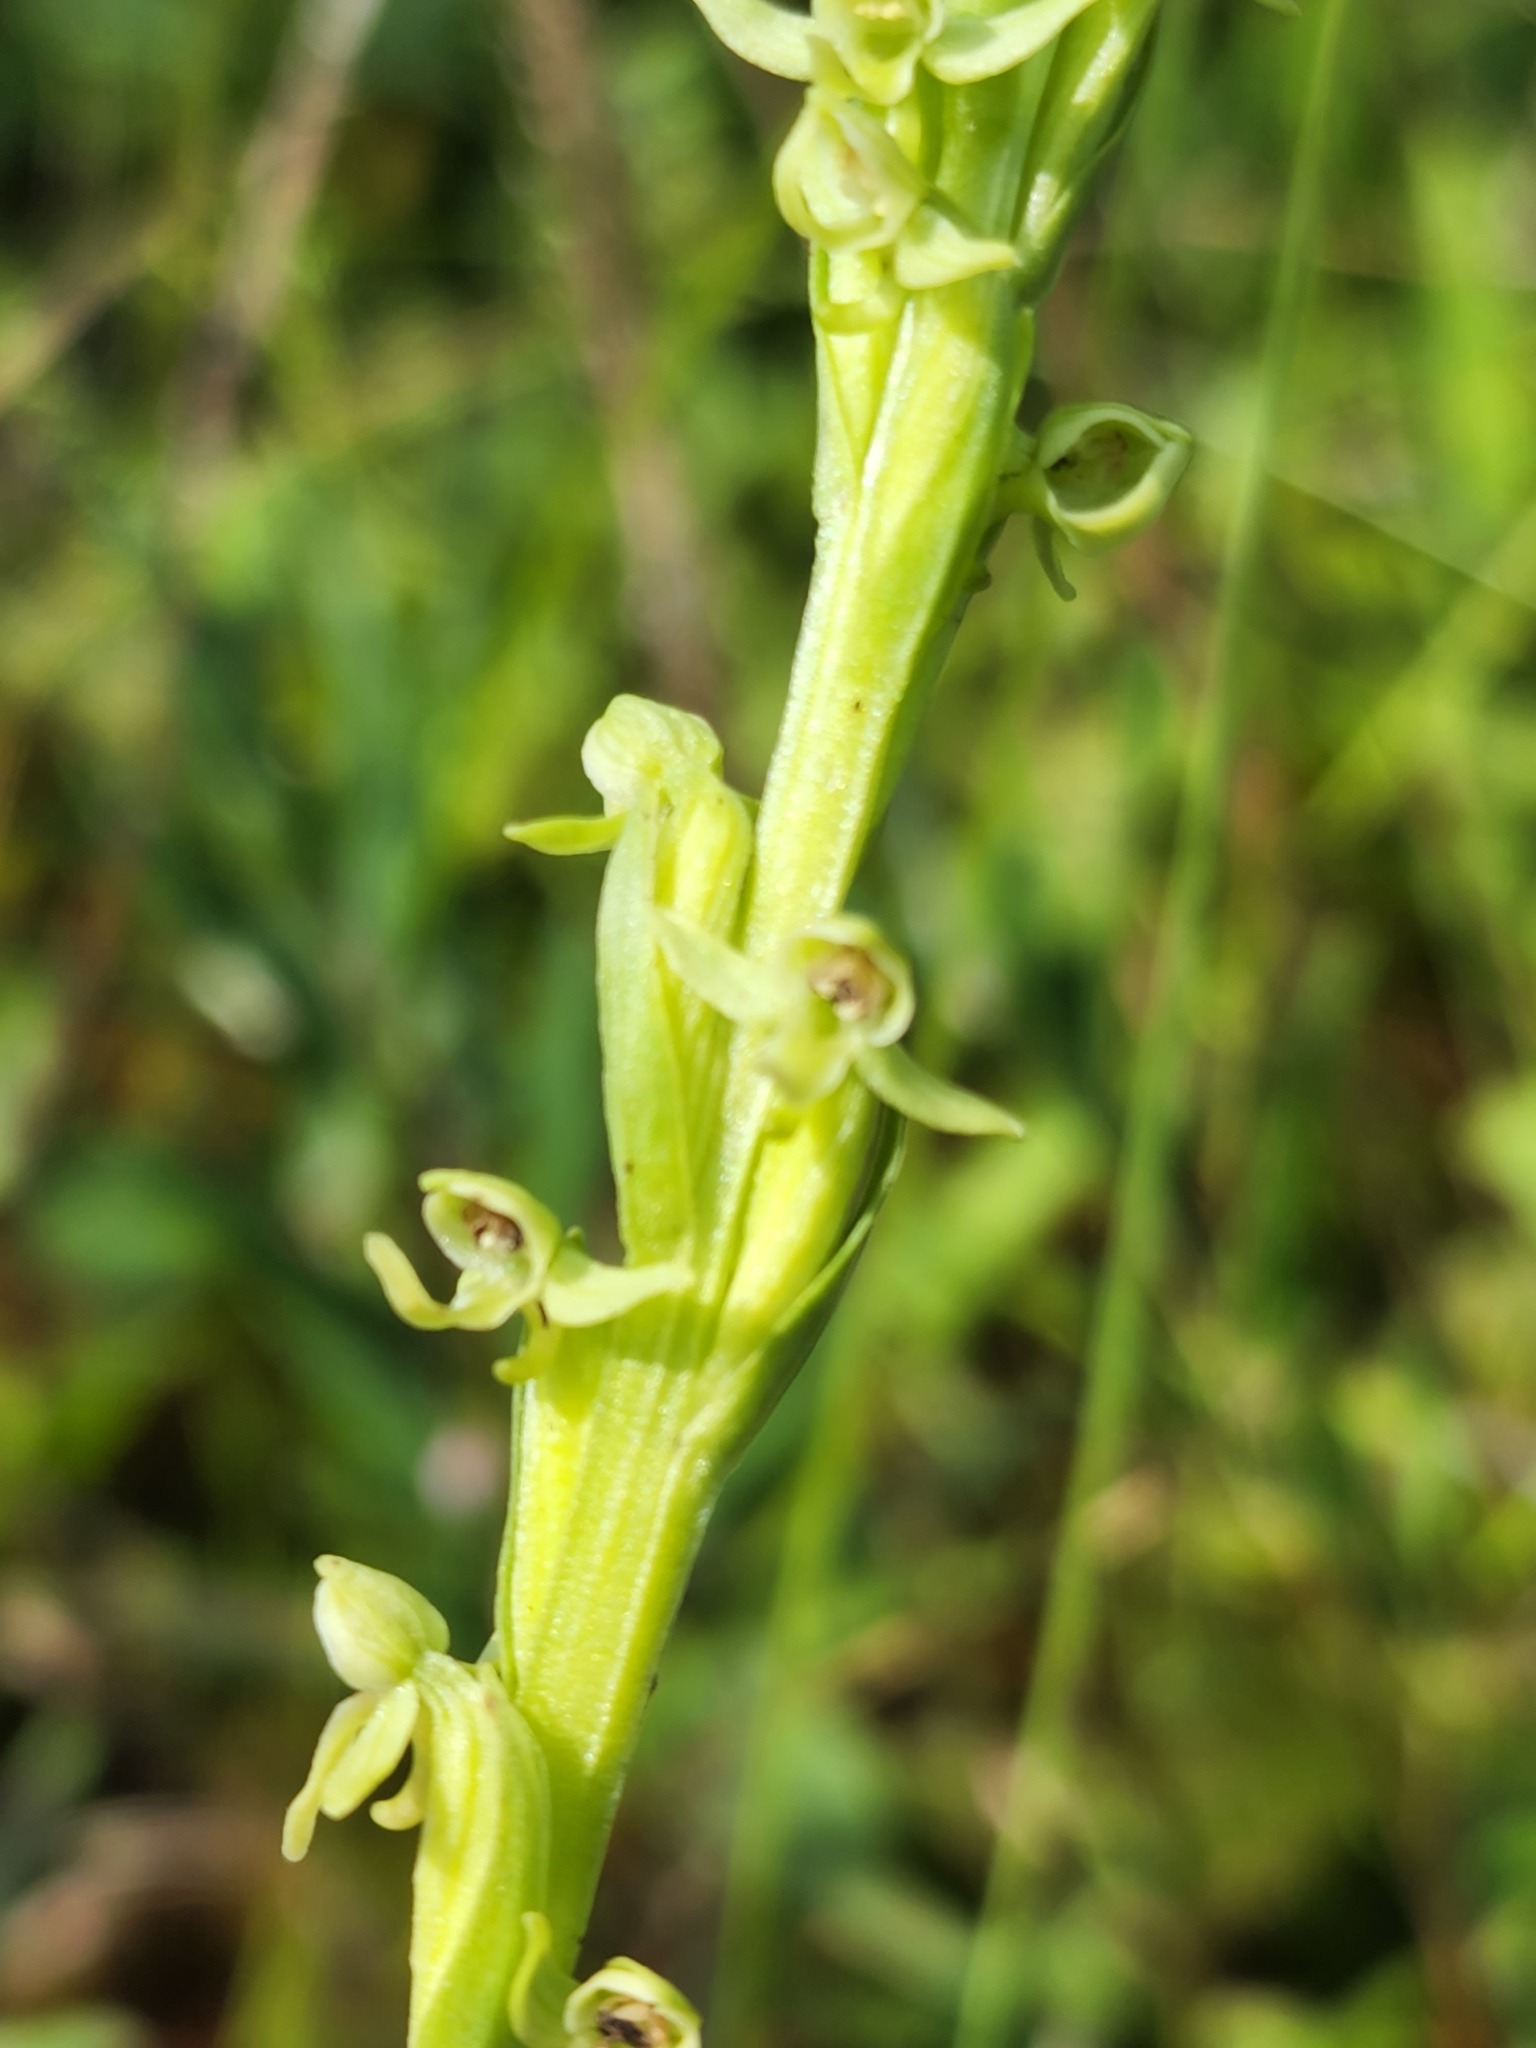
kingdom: Plantae
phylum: Tracheophyta
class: Liliopsida
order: Asparagales
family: Orchidaceae
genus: Platanthera
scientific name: Platanthera aquilonis
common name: Northern green orchid
